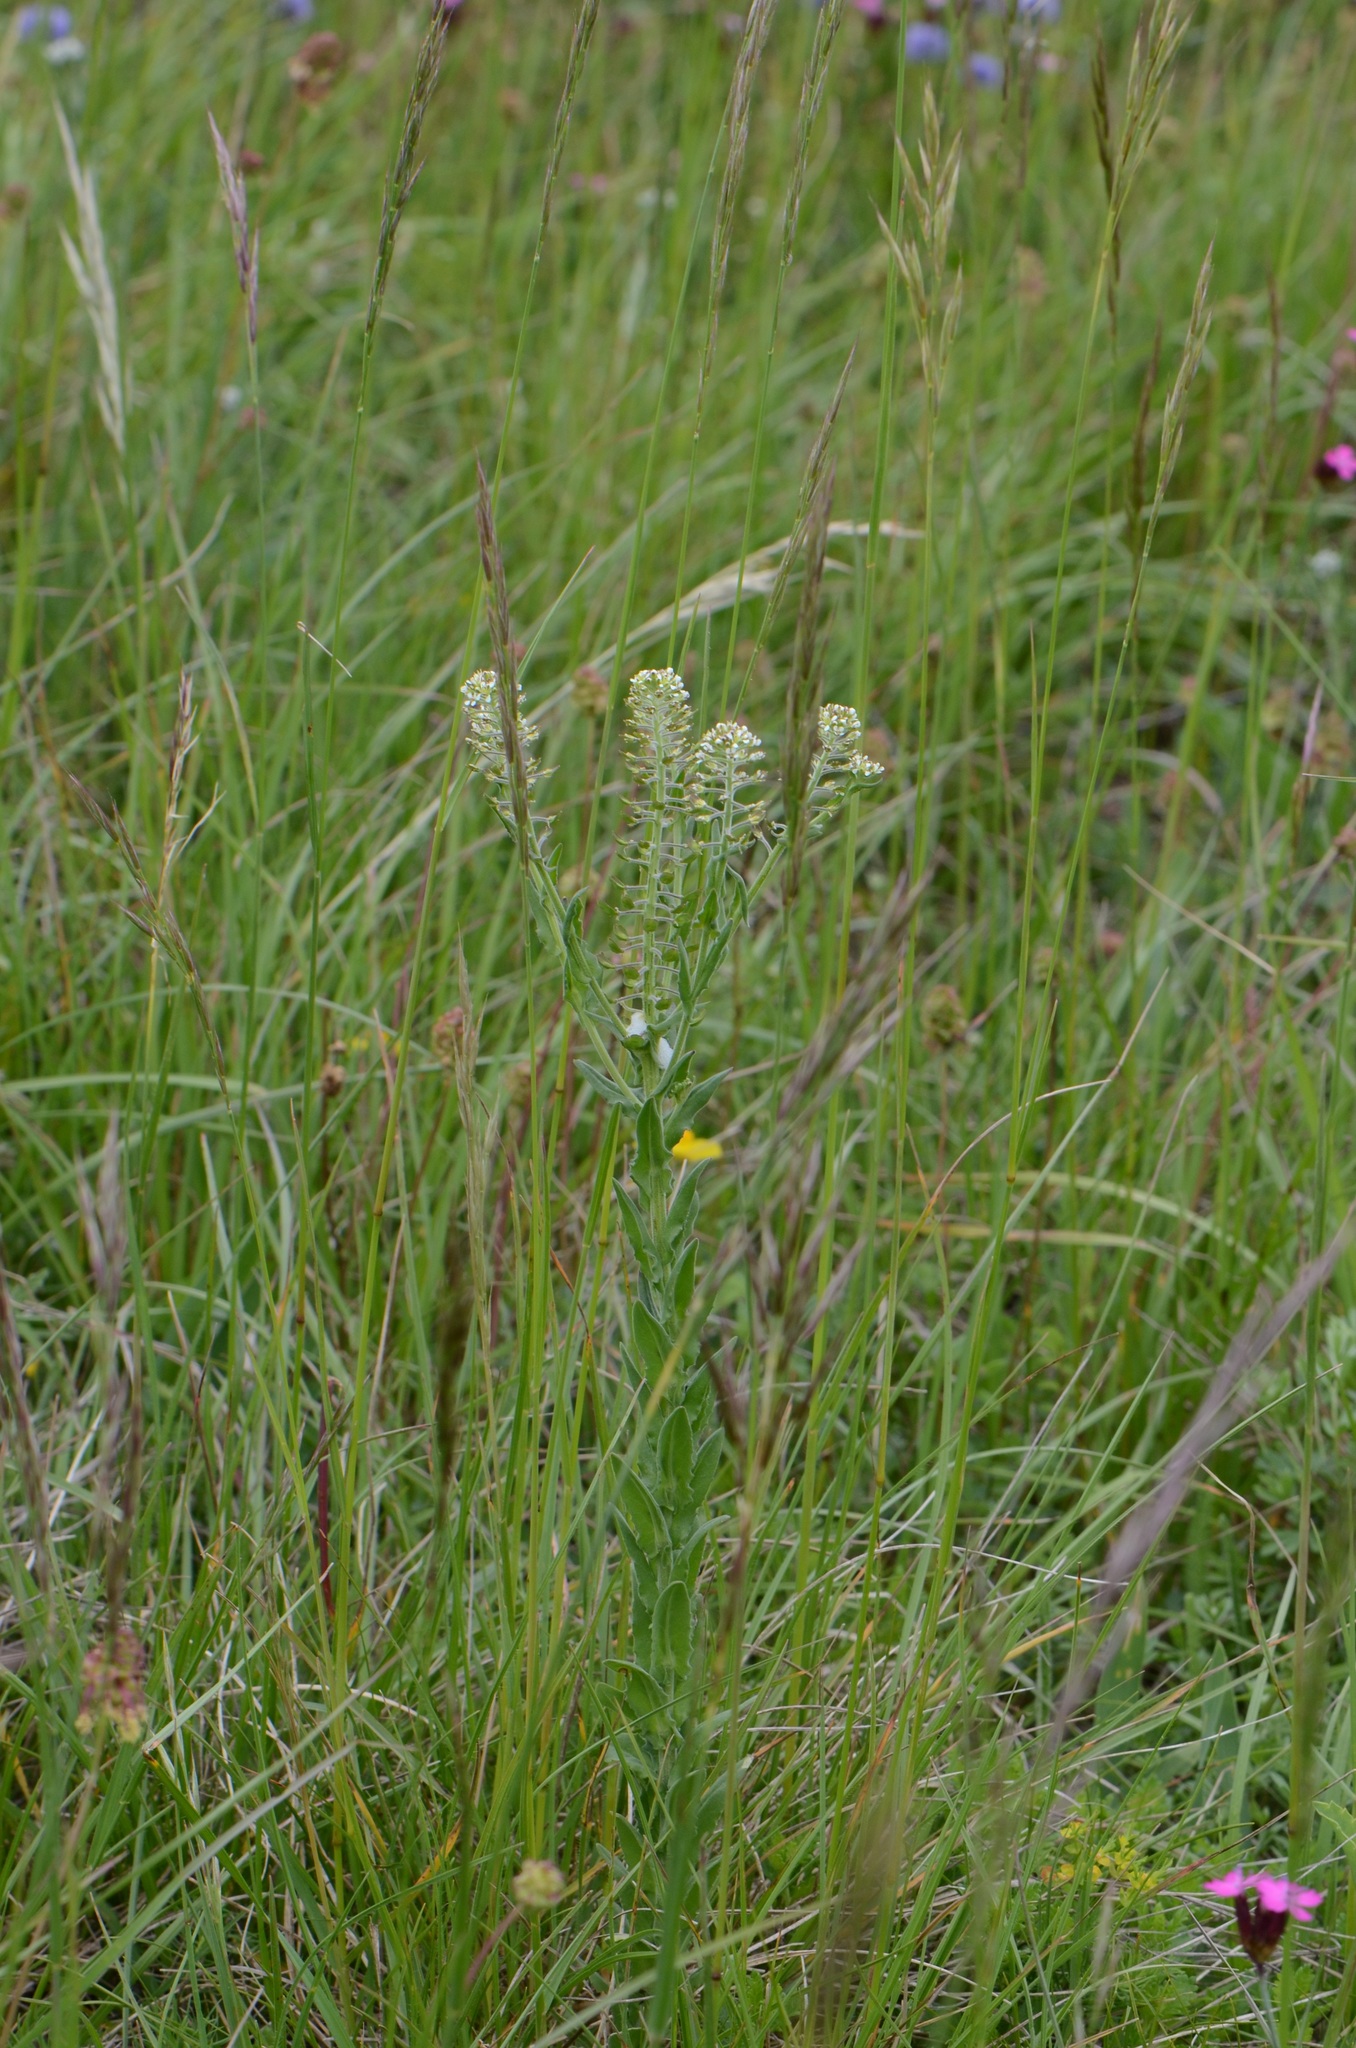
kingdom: Plantae
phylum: Tracheophyta
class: Magnoliopsida
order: Brassicales
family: Brassicaceae
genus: Lepidium
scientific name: Lepidium campestre
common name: Field pepperwort
